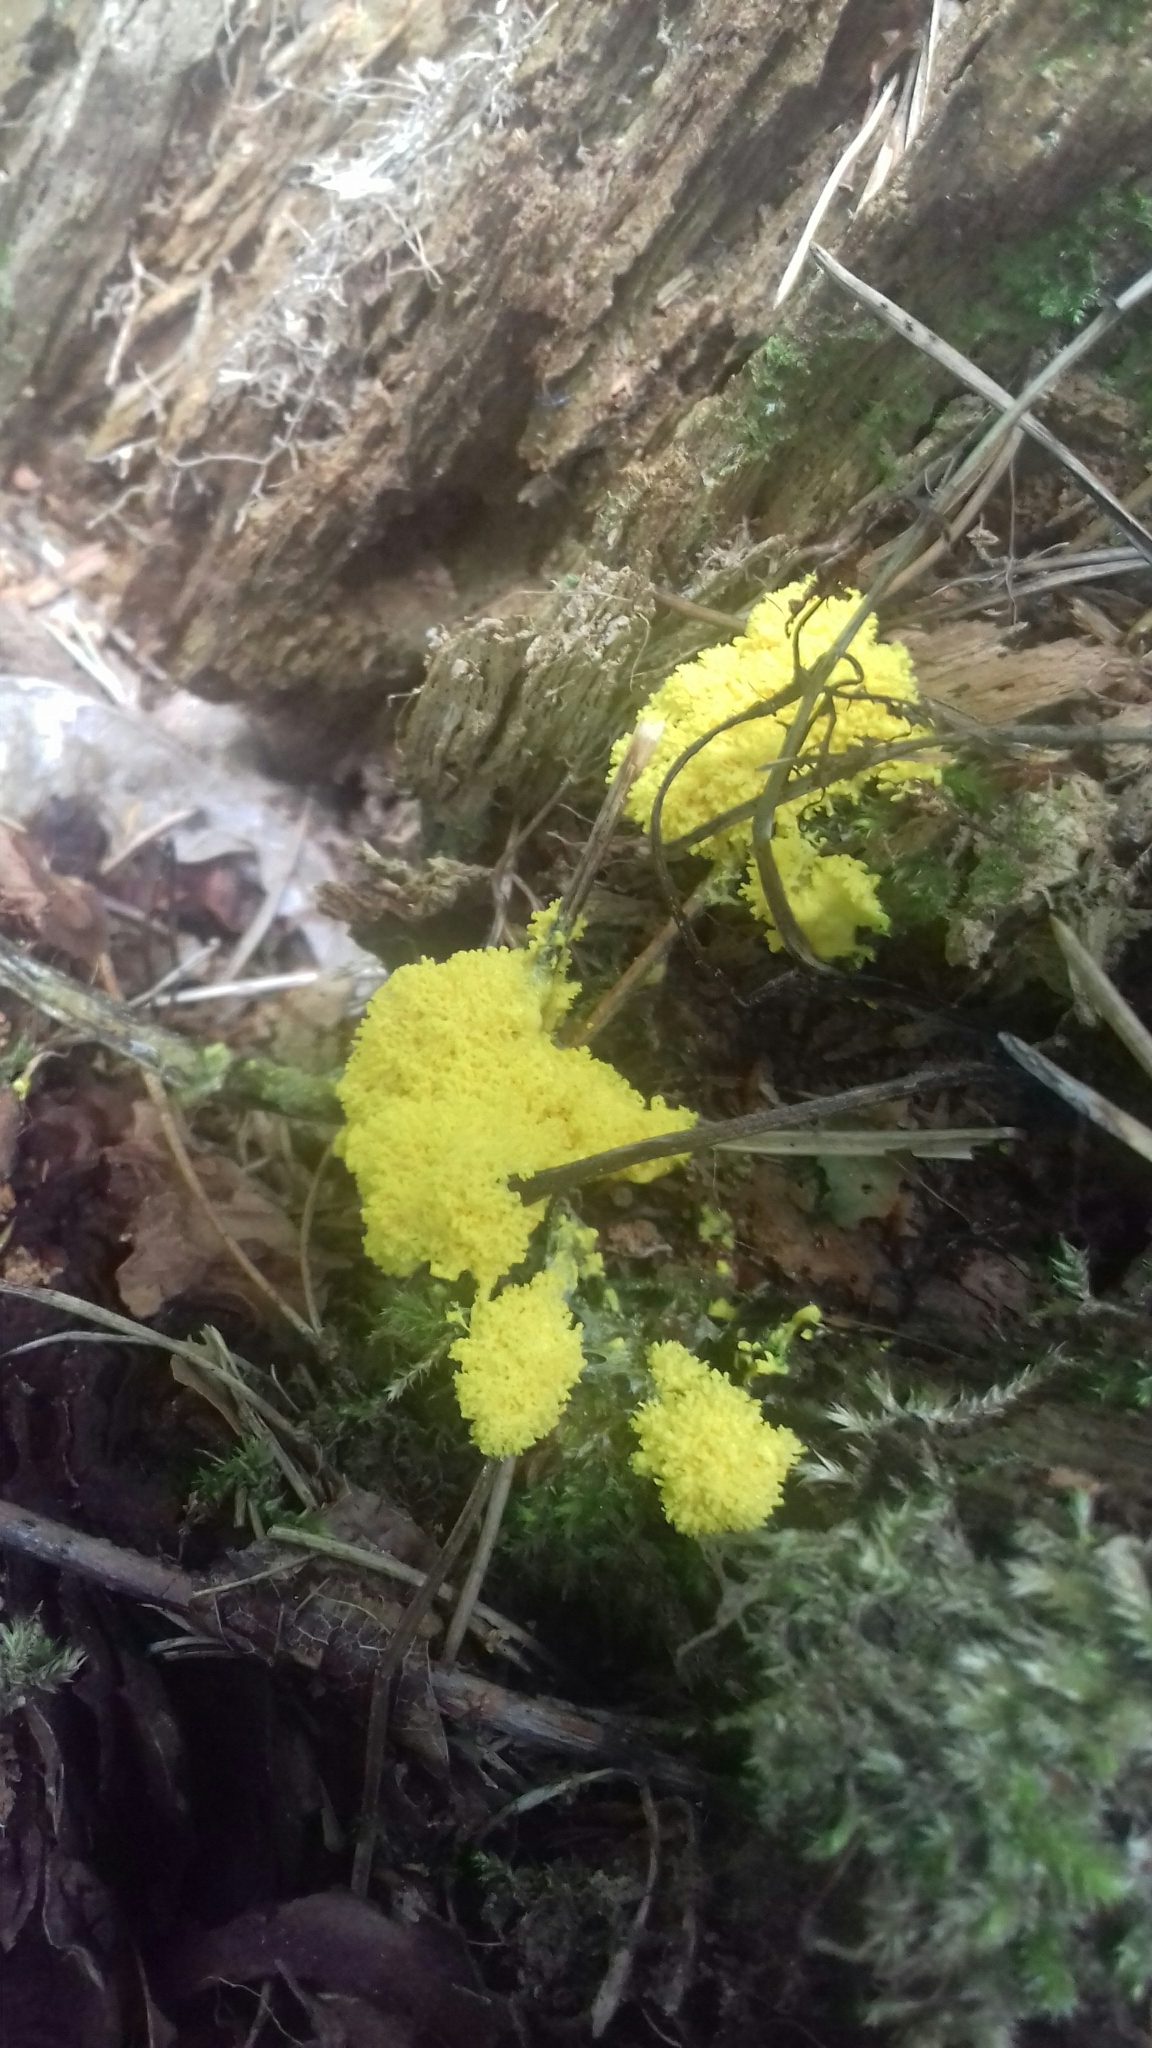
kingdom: Protozoa
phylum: Mycetozoa
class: Myxomycetes
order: Physarales
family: Physaraceae
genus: Fuligo
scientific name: Fuligo septica
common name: Dog vomit slime mold
